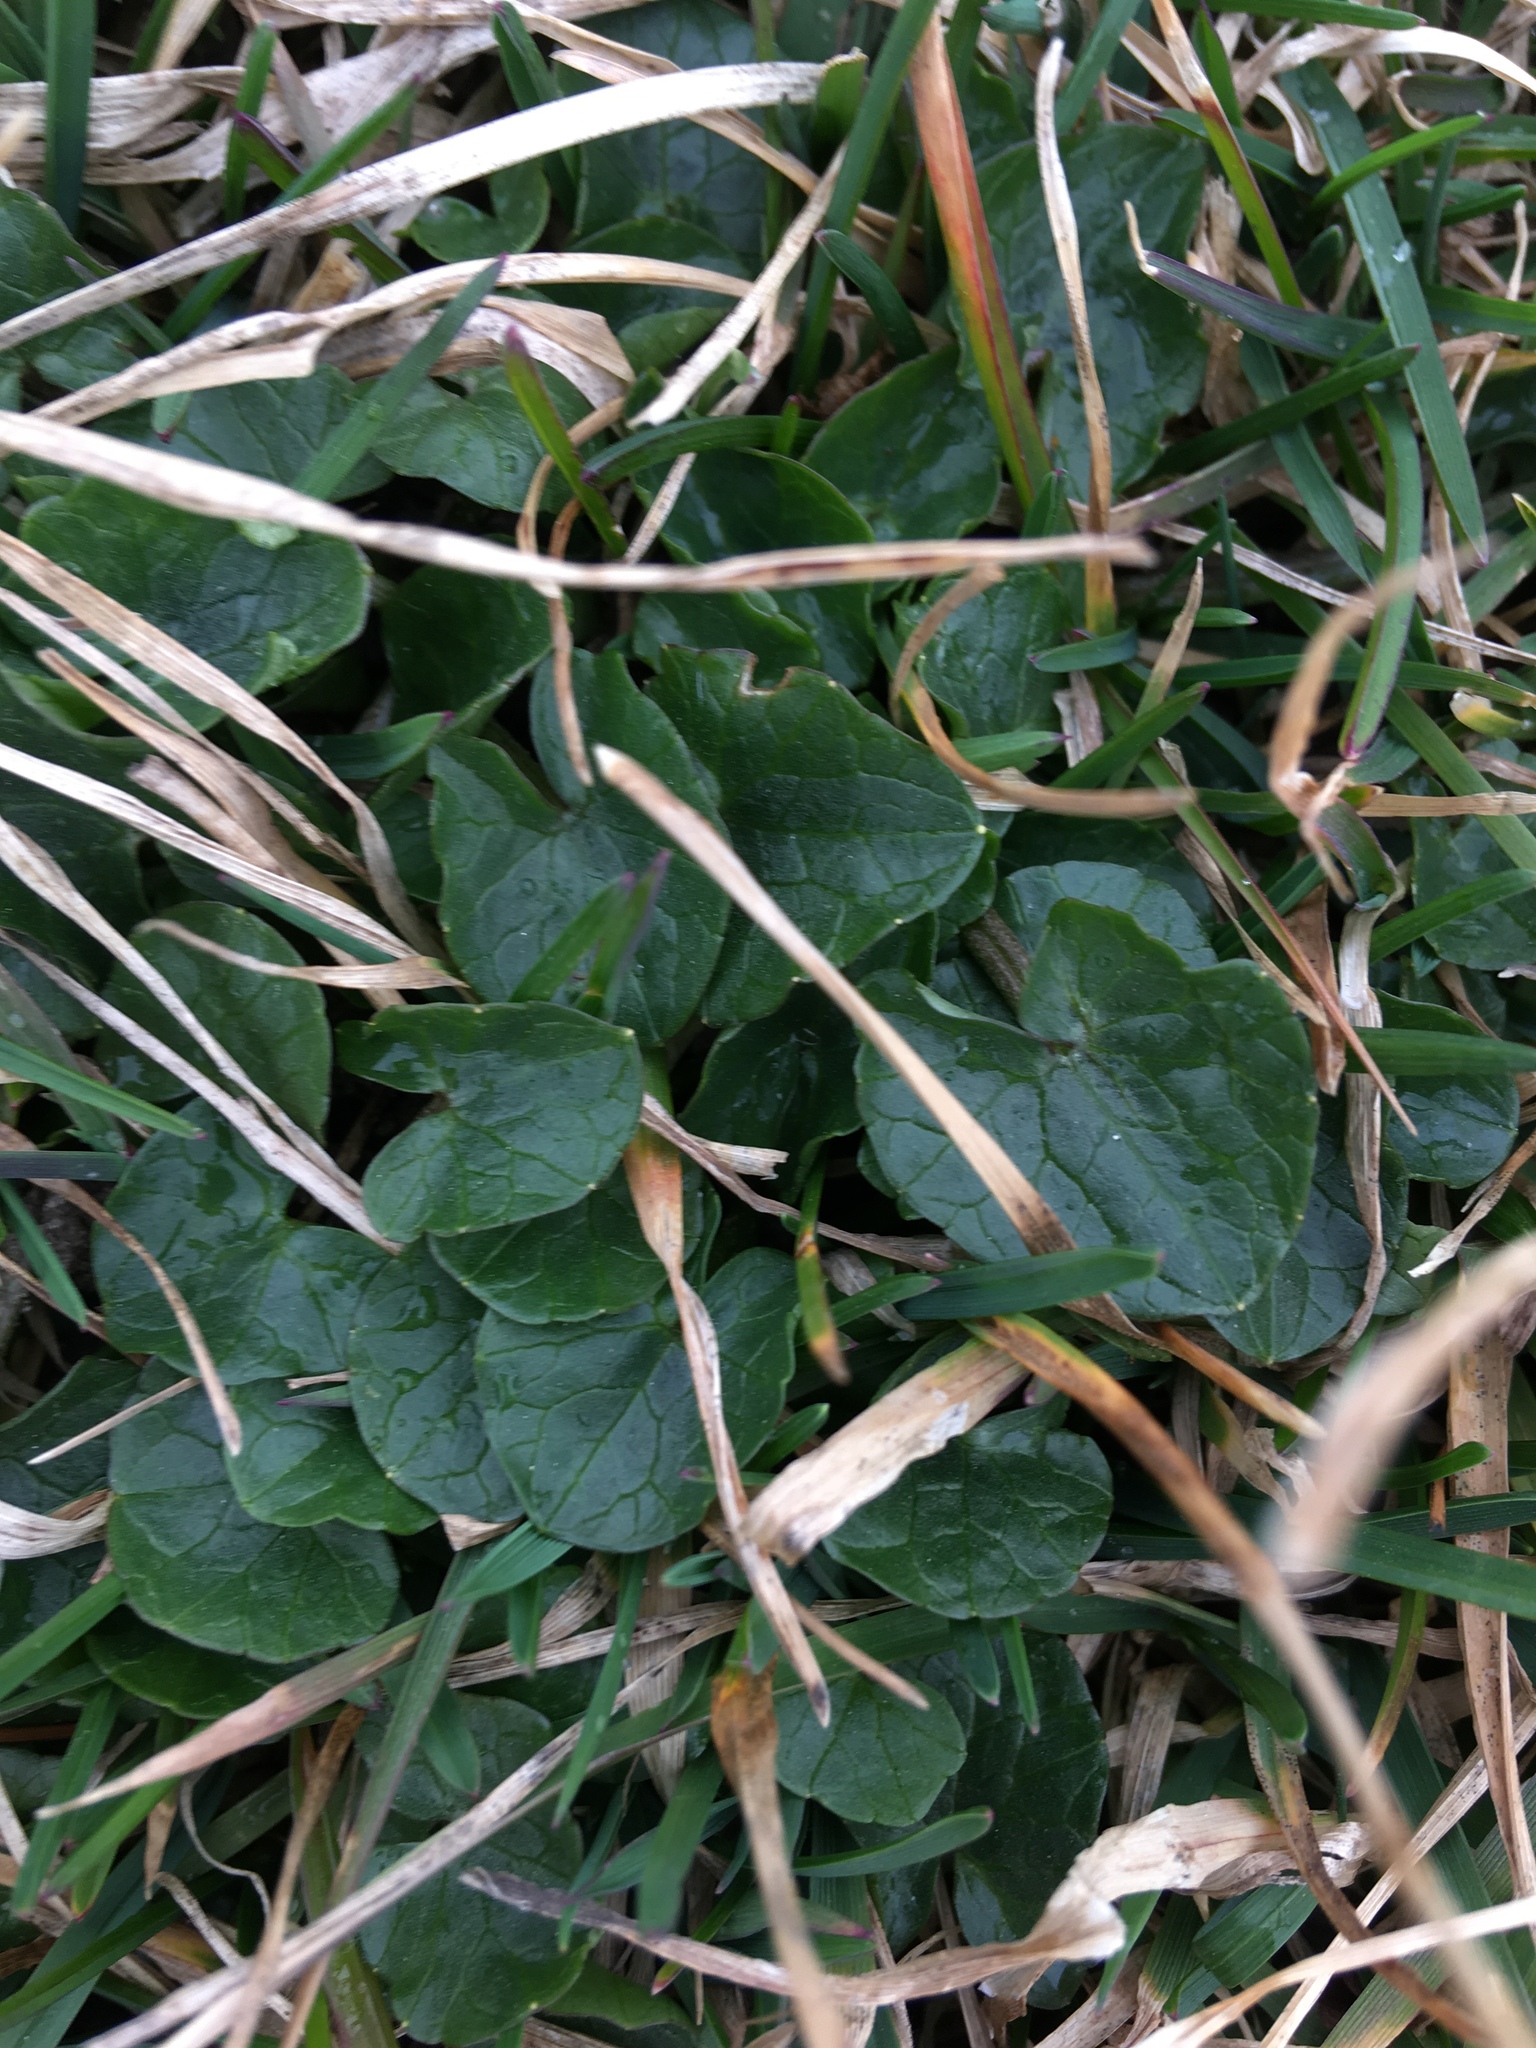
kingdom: Plantae
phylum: Tracheophyta
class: Magnoliopsida
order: Ranunculales
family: Ranunculaceae
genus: Ficaria
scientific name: Ficaria verna
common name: Lesser celandine
